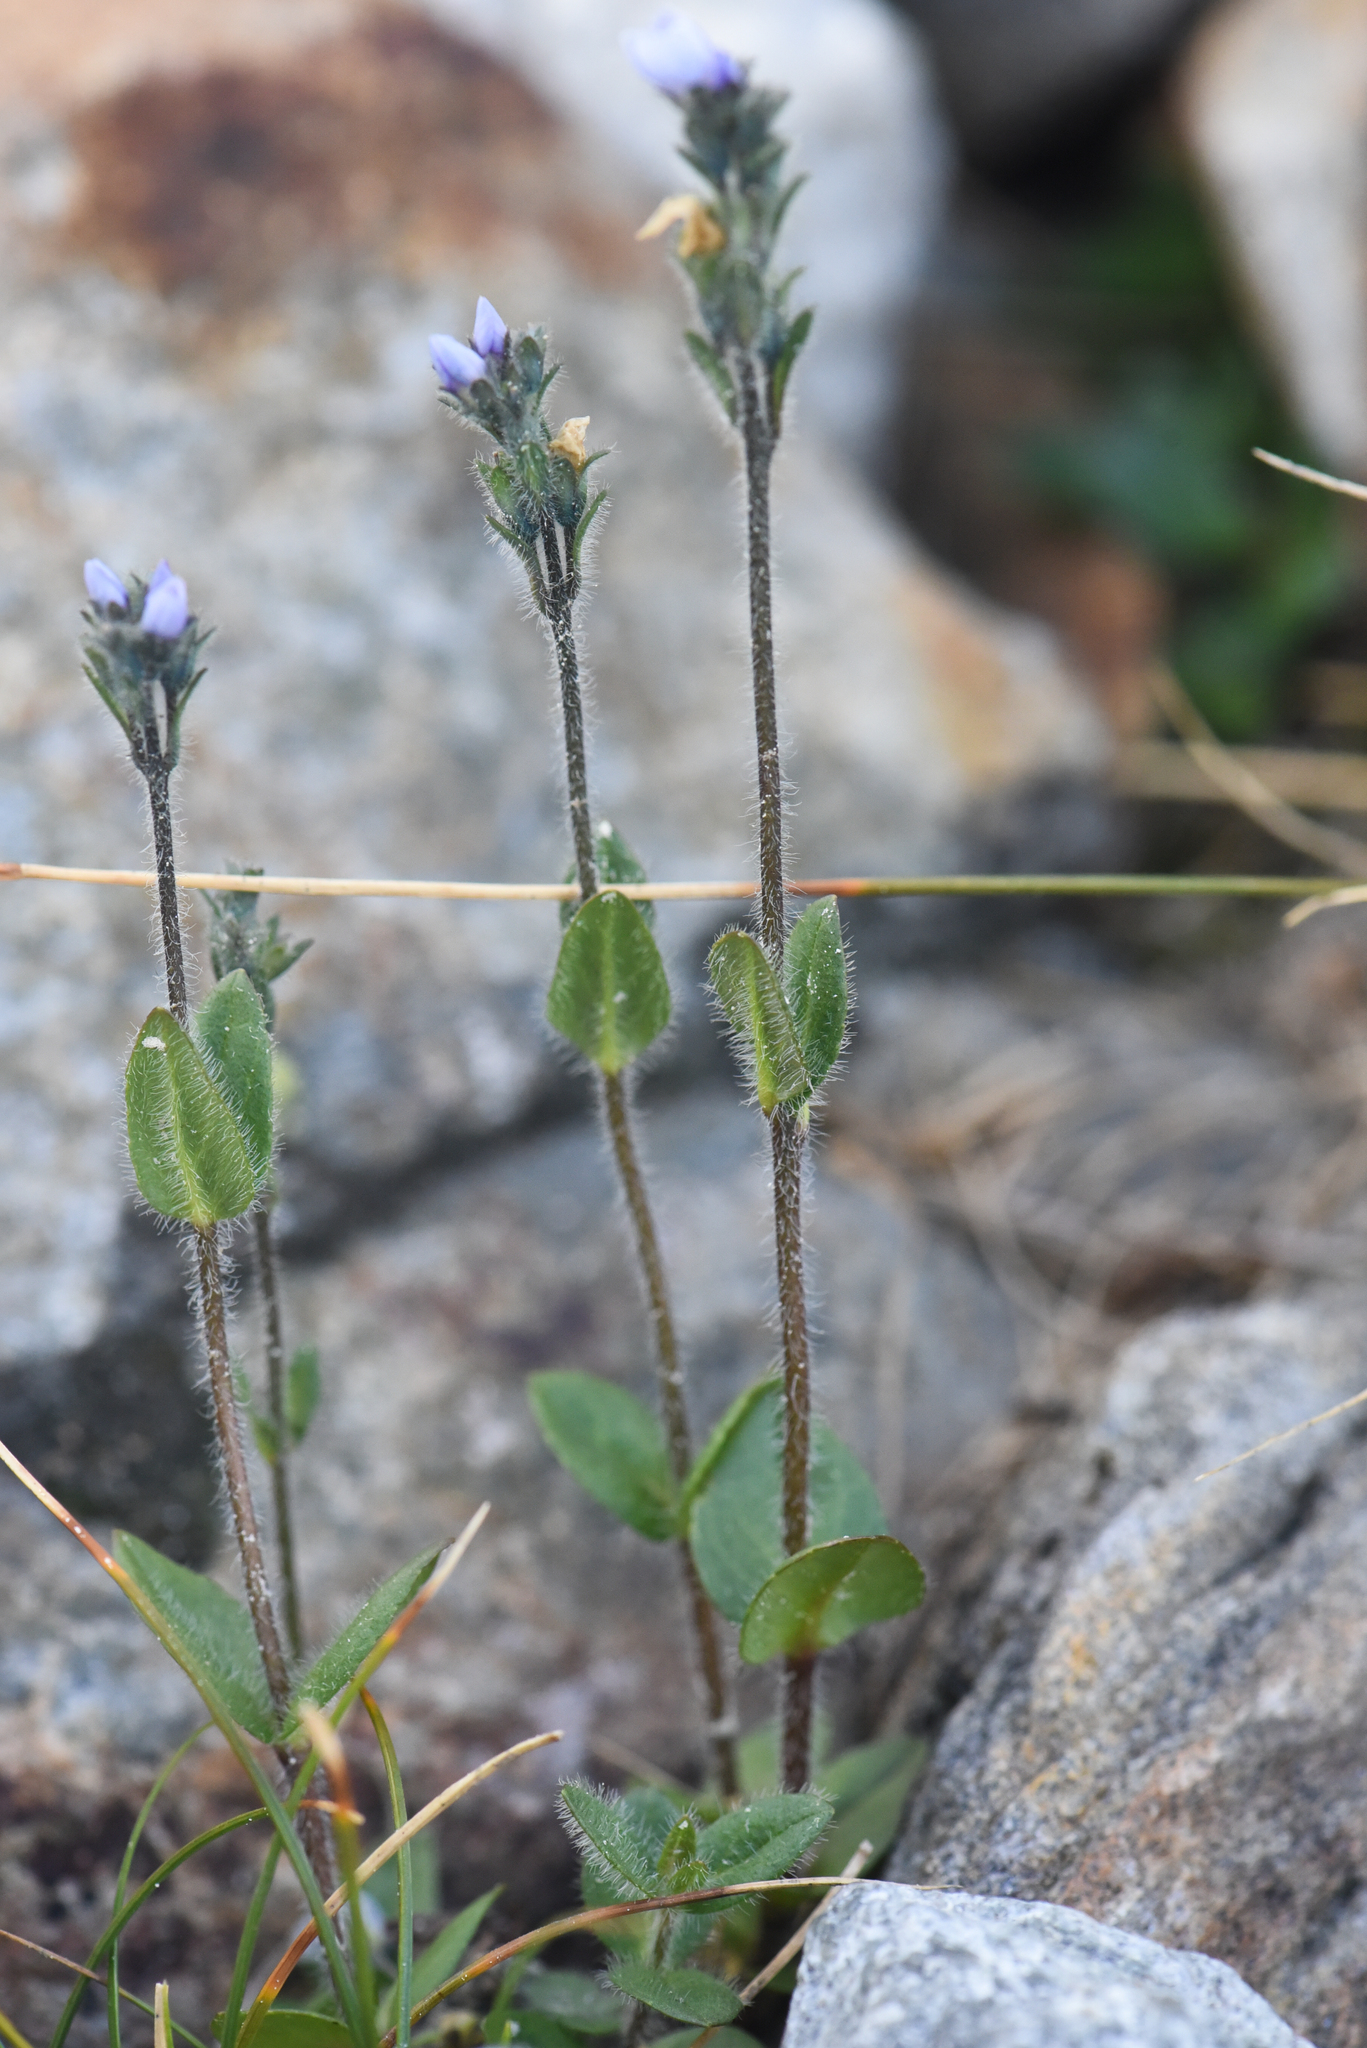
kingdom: Plantae
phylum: Tracheophyta
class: Magnoliopsida
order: Lamiales
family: Plantaginaceae
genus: Veronica
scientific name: Veronica wormskjoldii
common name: American alpine speedwell
